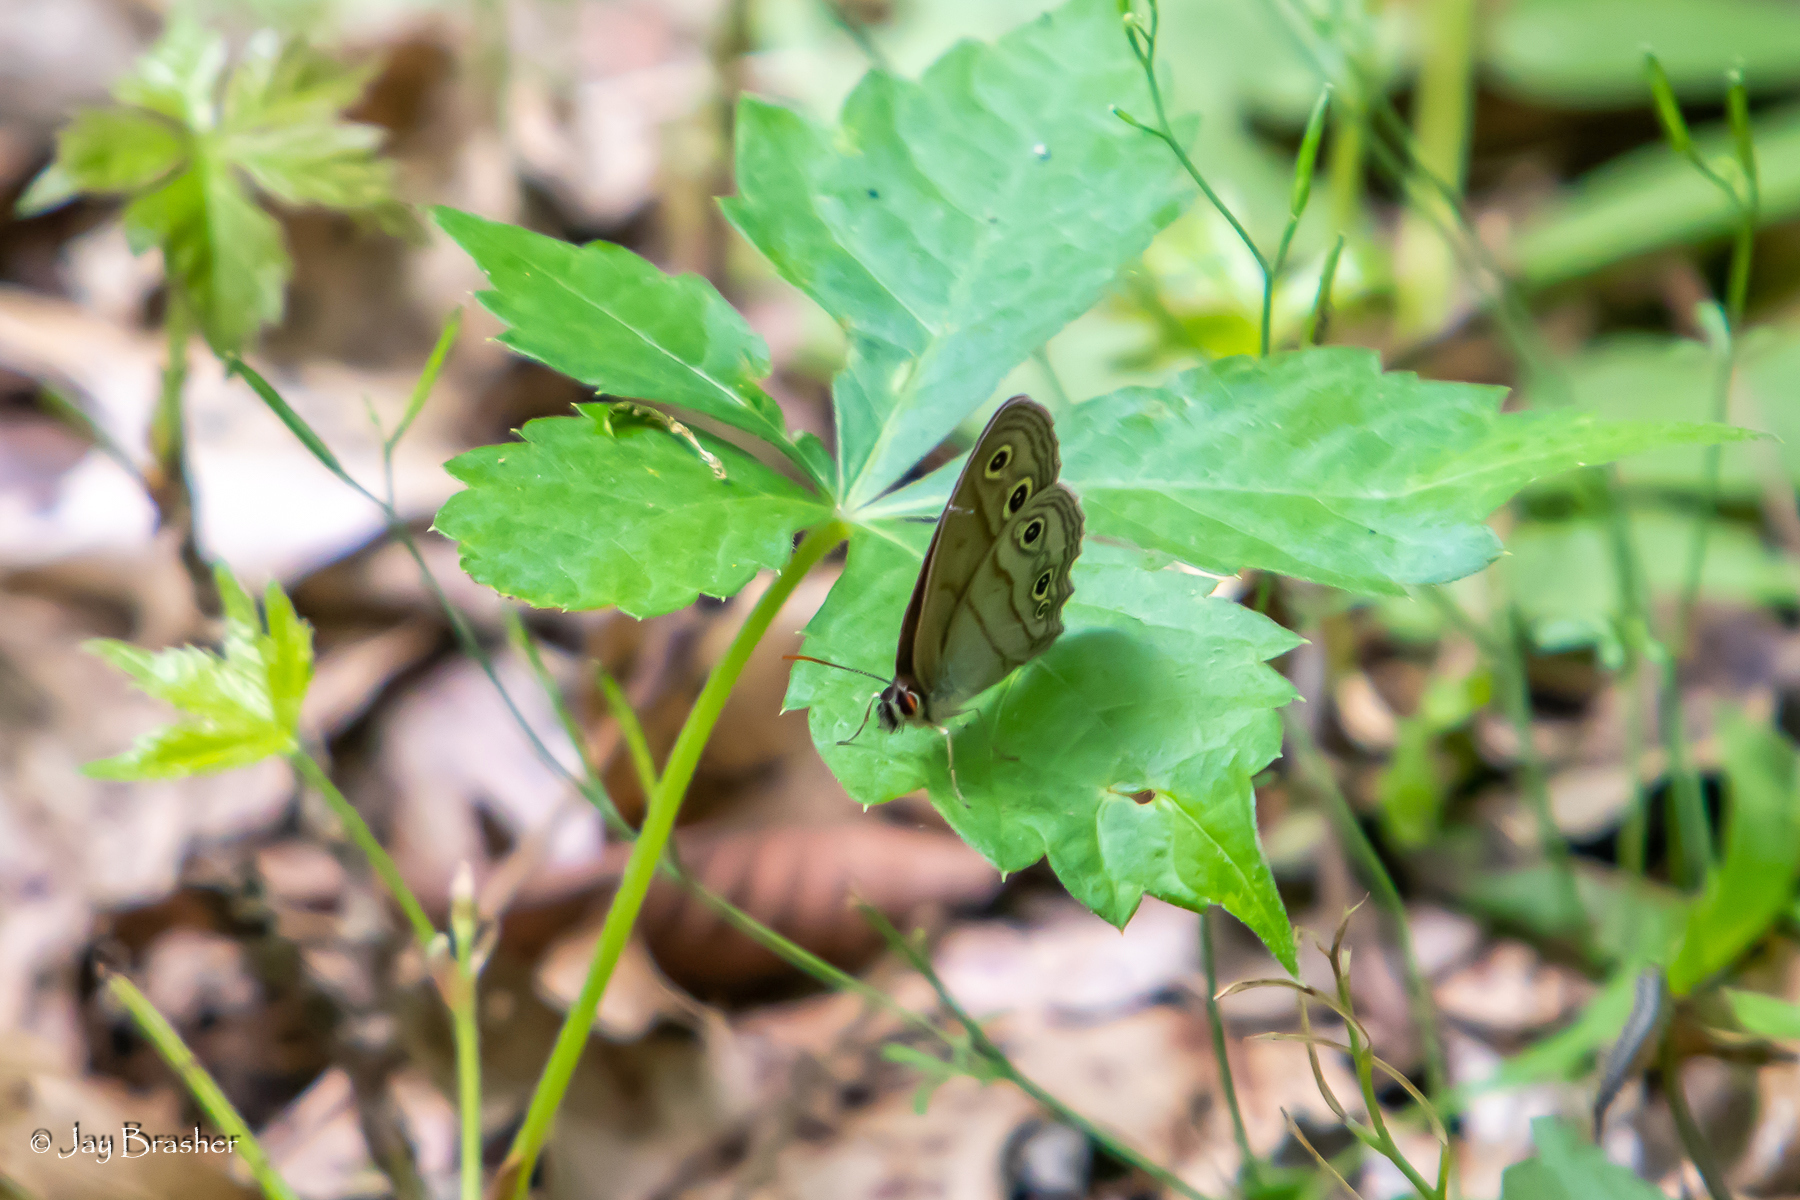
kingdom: Animalia
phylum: Arthropoda
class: Insecta
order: Lepidoptera
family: Nymphalidae
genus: Euptychia
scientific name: Euptychia cymela
